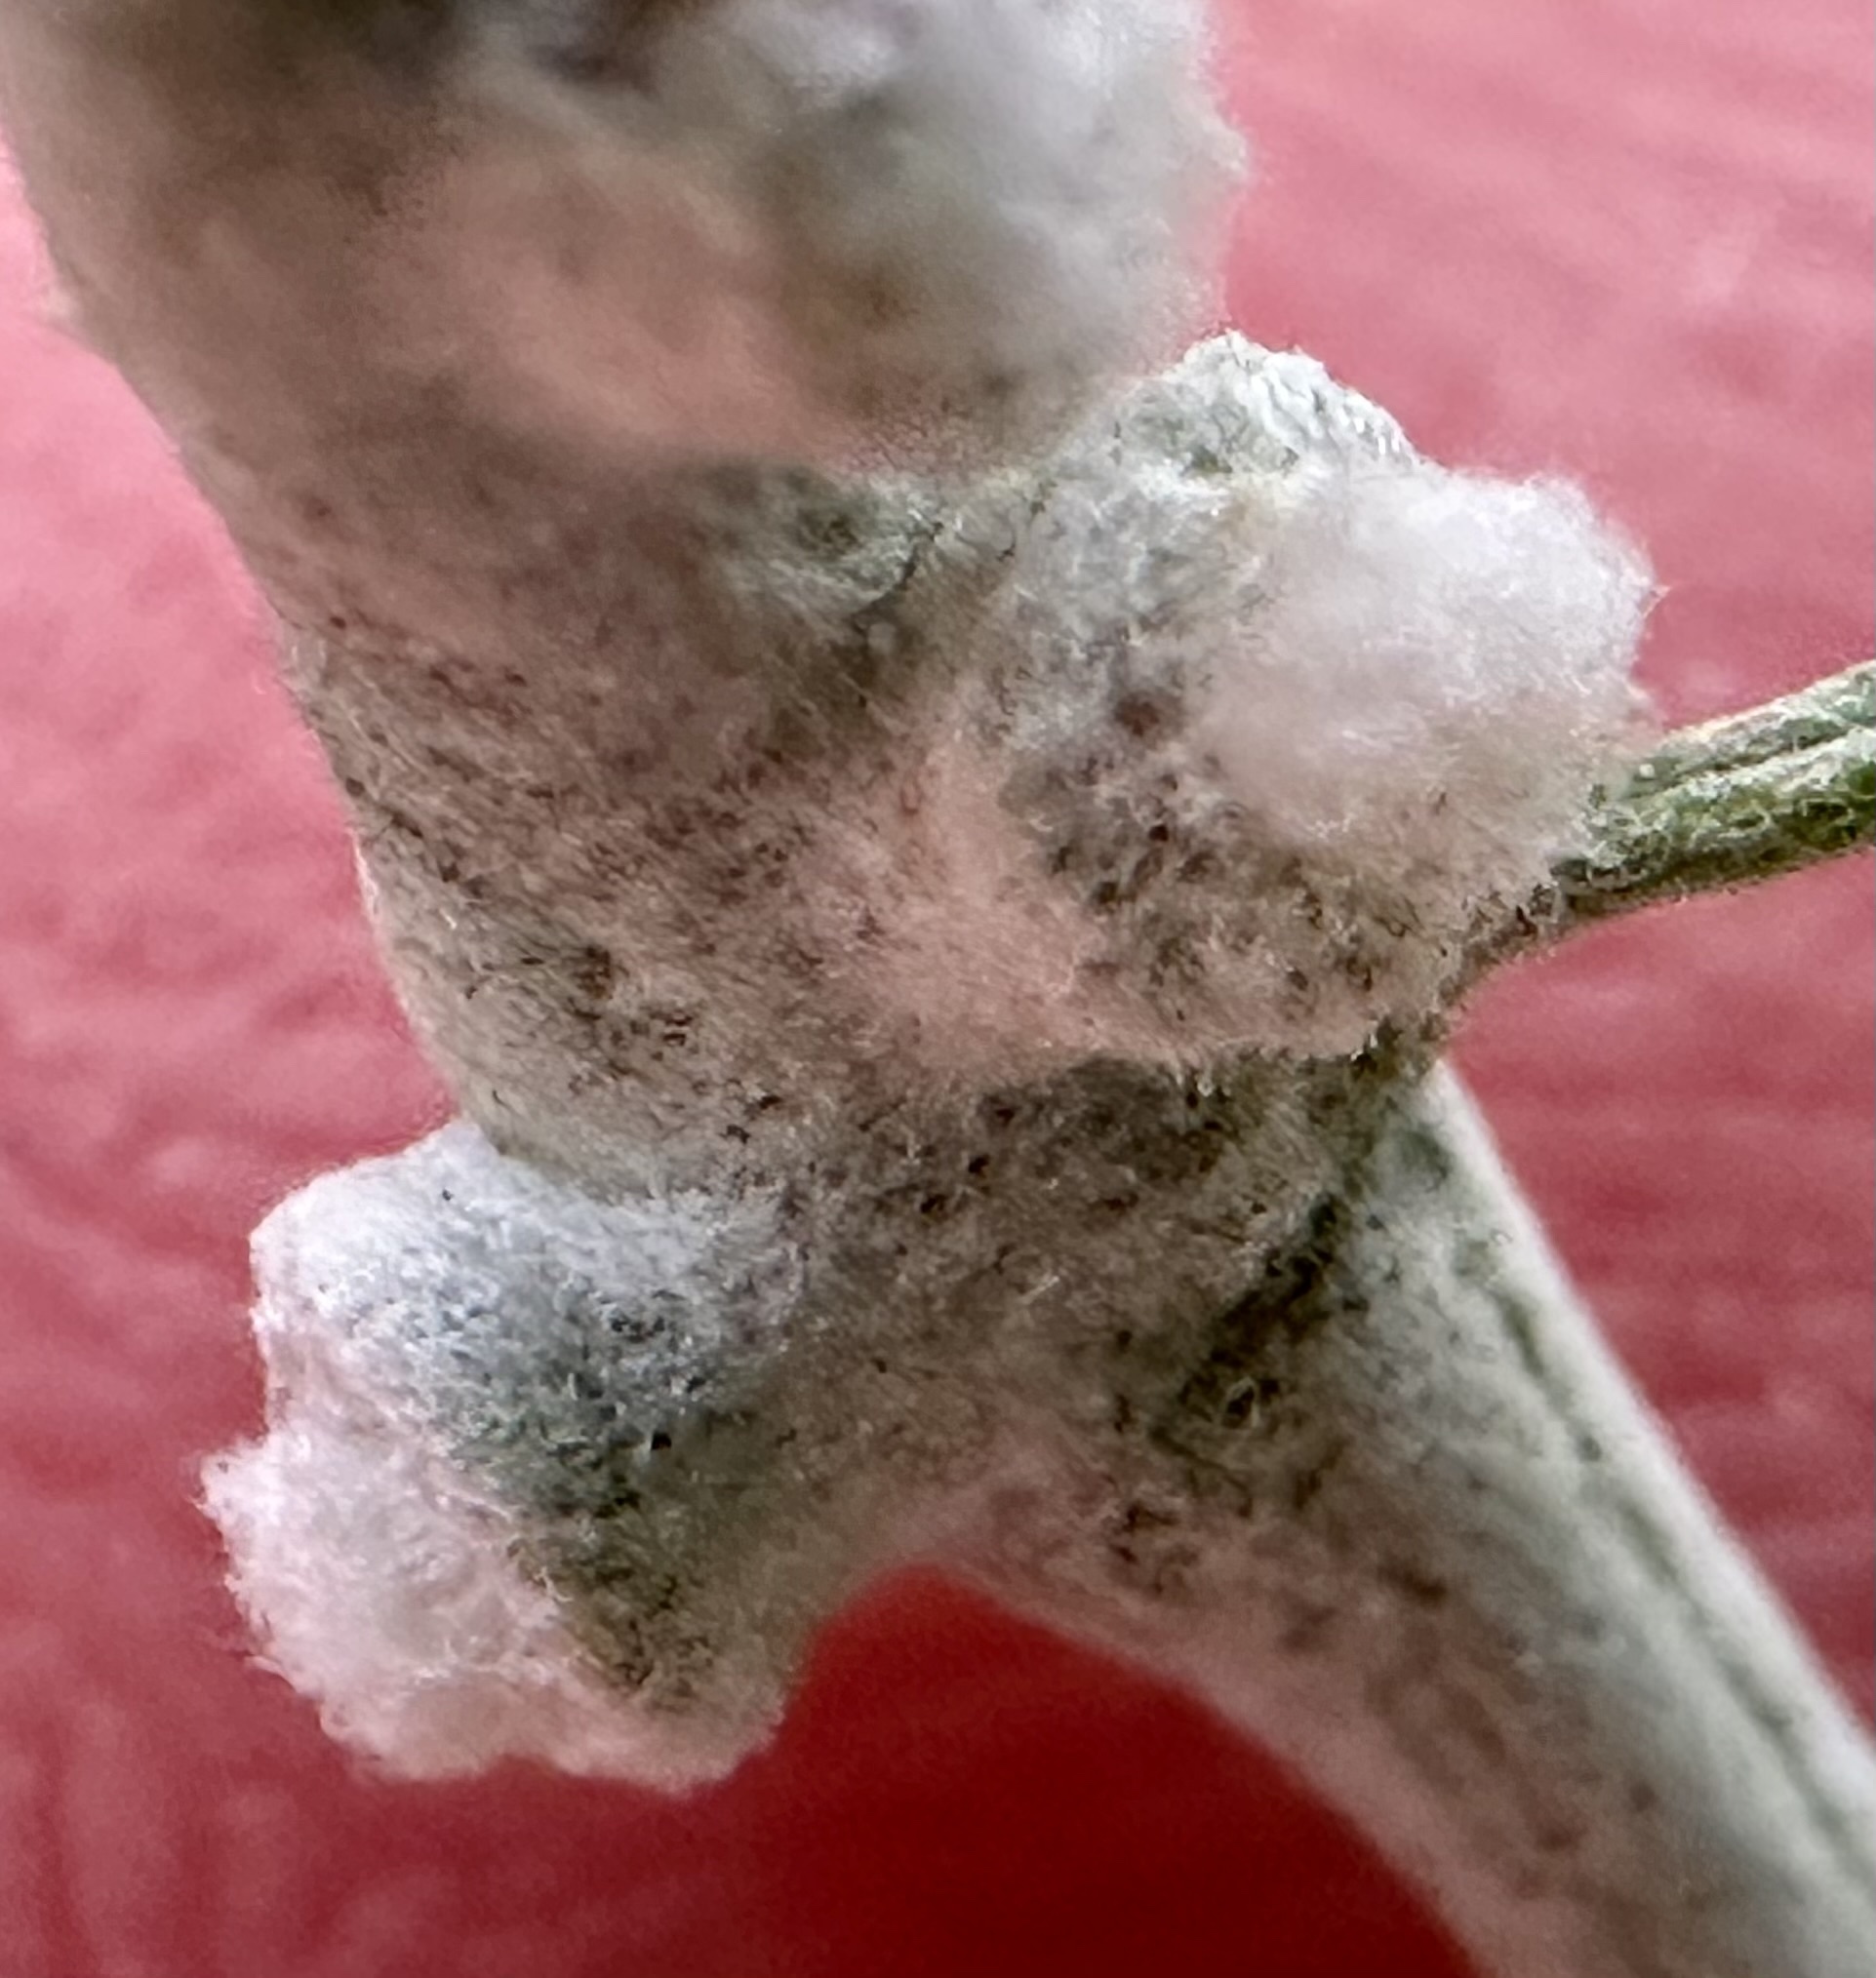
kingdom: Animalia
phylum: Arthropoda
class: Insecta
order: Diptera
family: Cecidomyiidae
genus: Rhopalomyia
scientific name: Rhopalomyia chrysothamni
